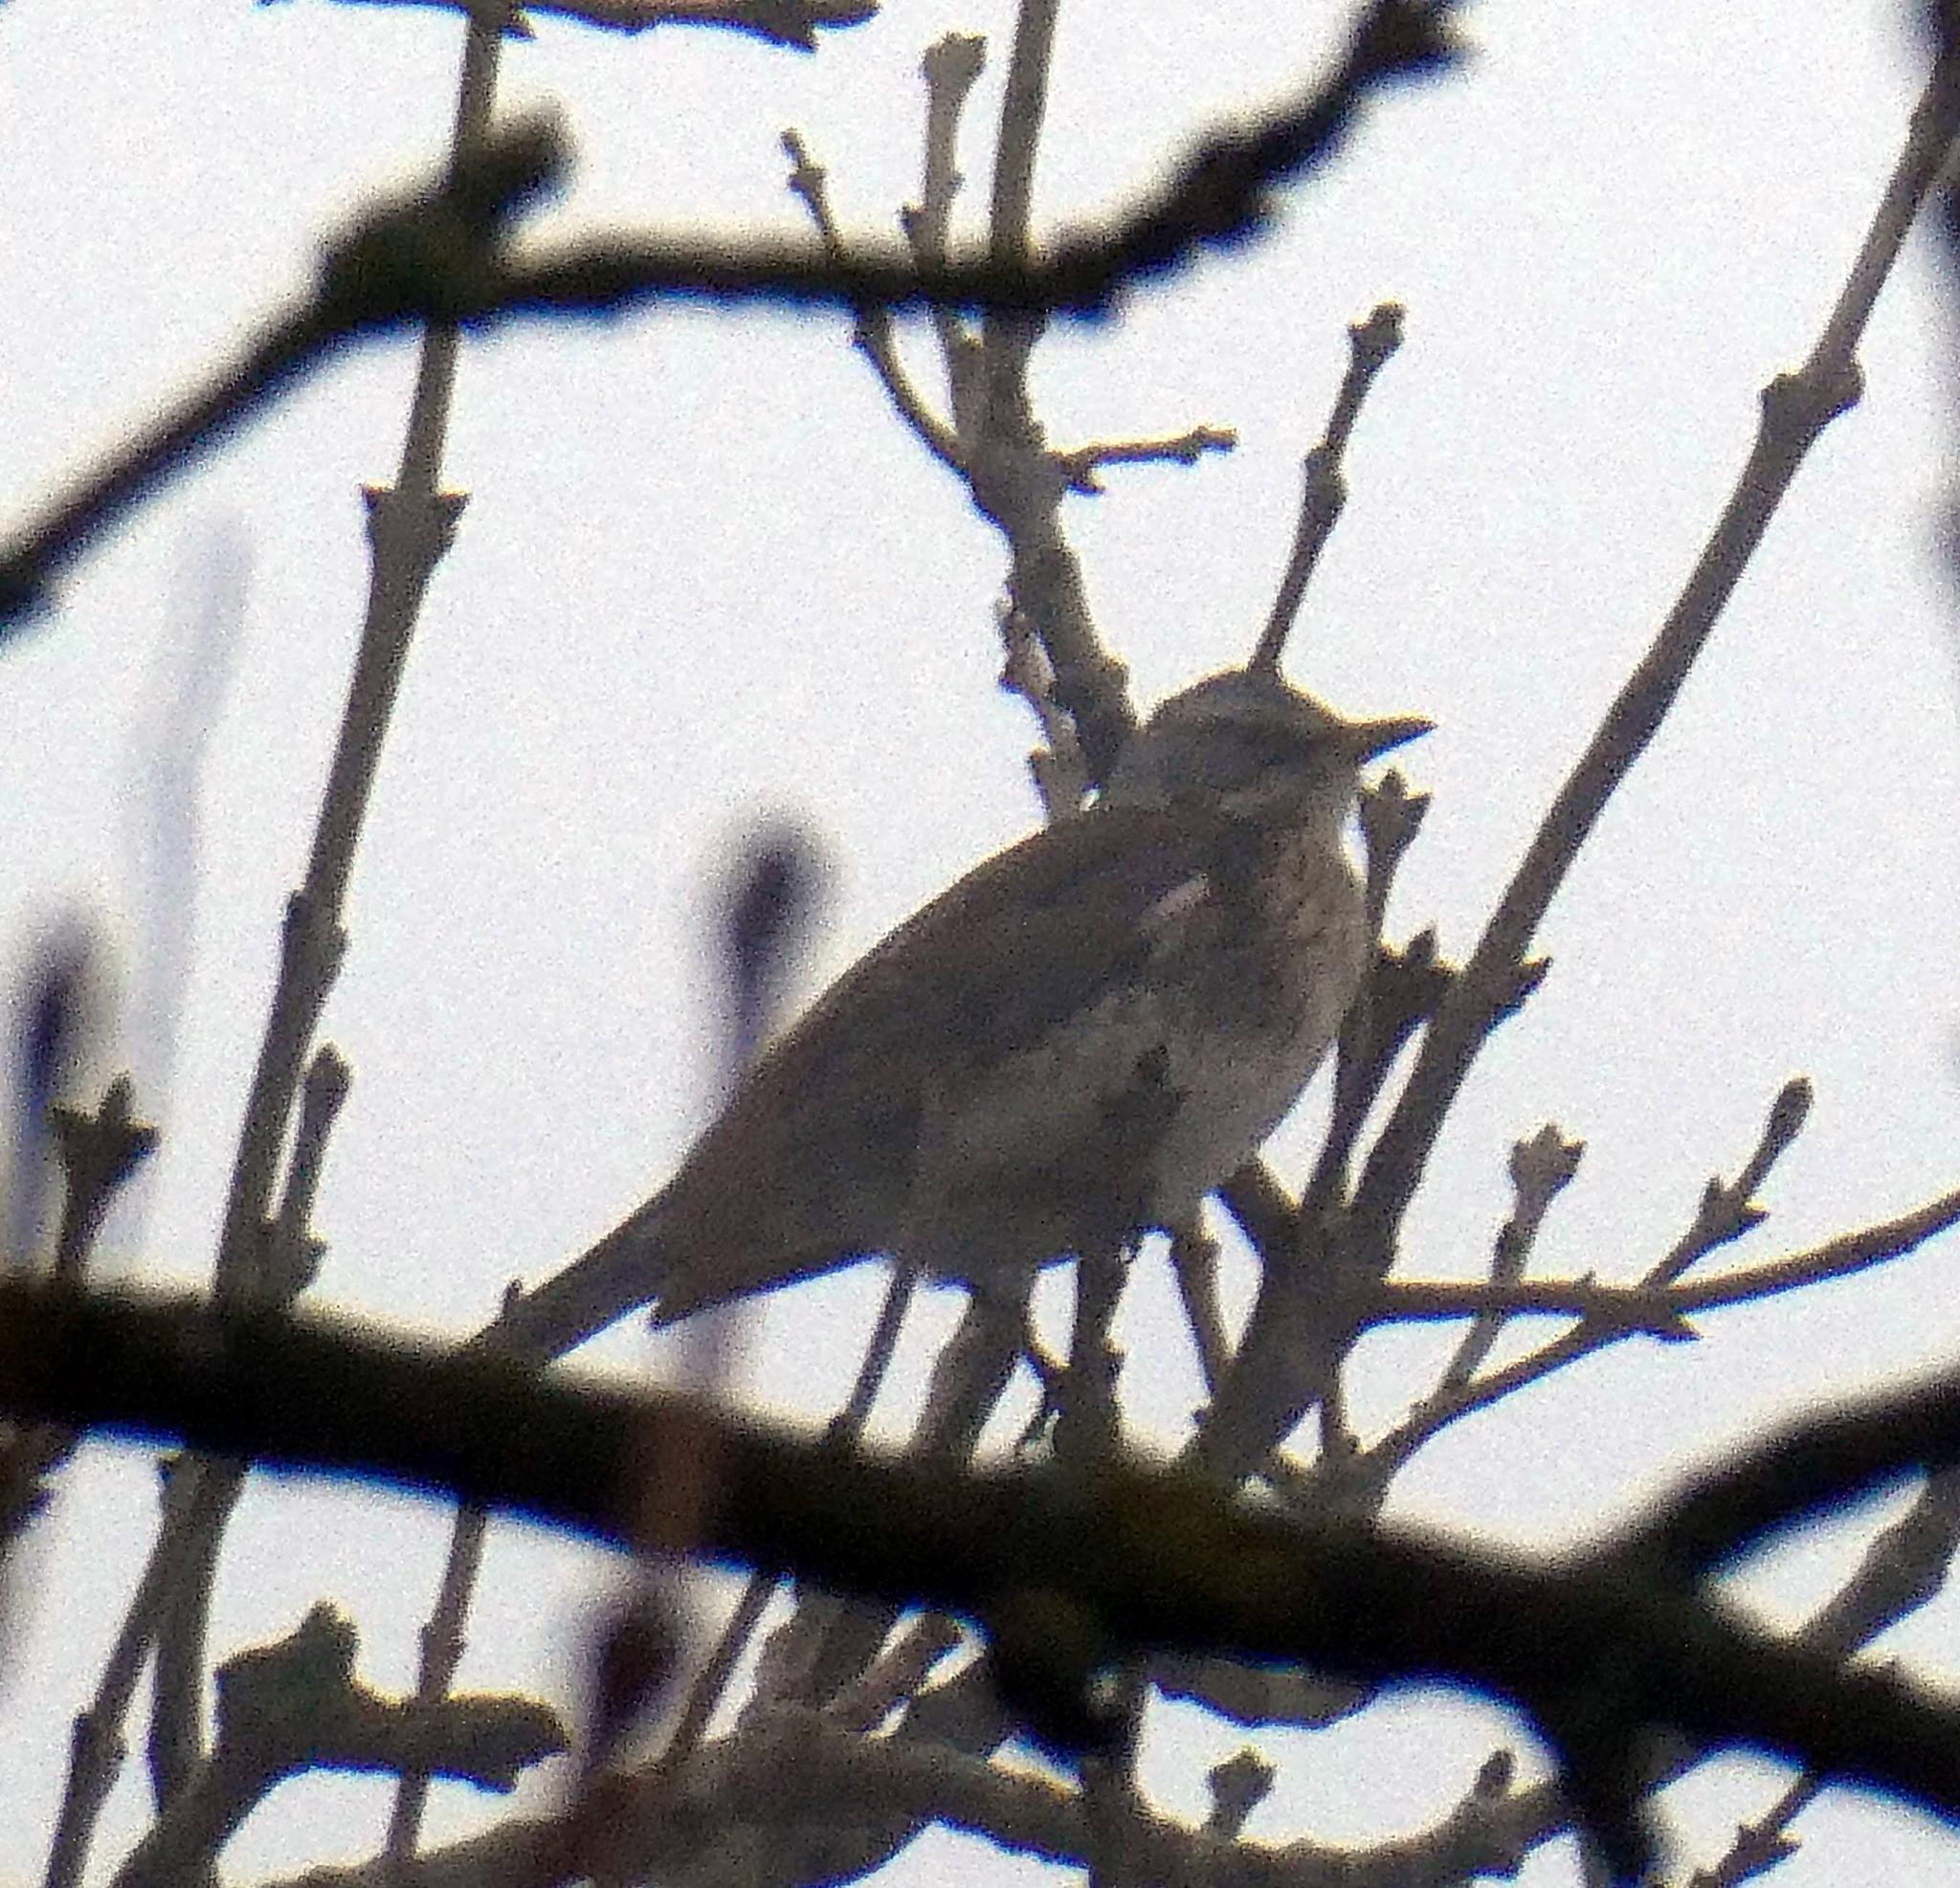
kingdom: Animalia
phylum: Chordata
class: Aves
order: Passeriformes
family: Turdidae
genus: Turdus
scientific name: Turdus pilaris
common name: Fieldfare
